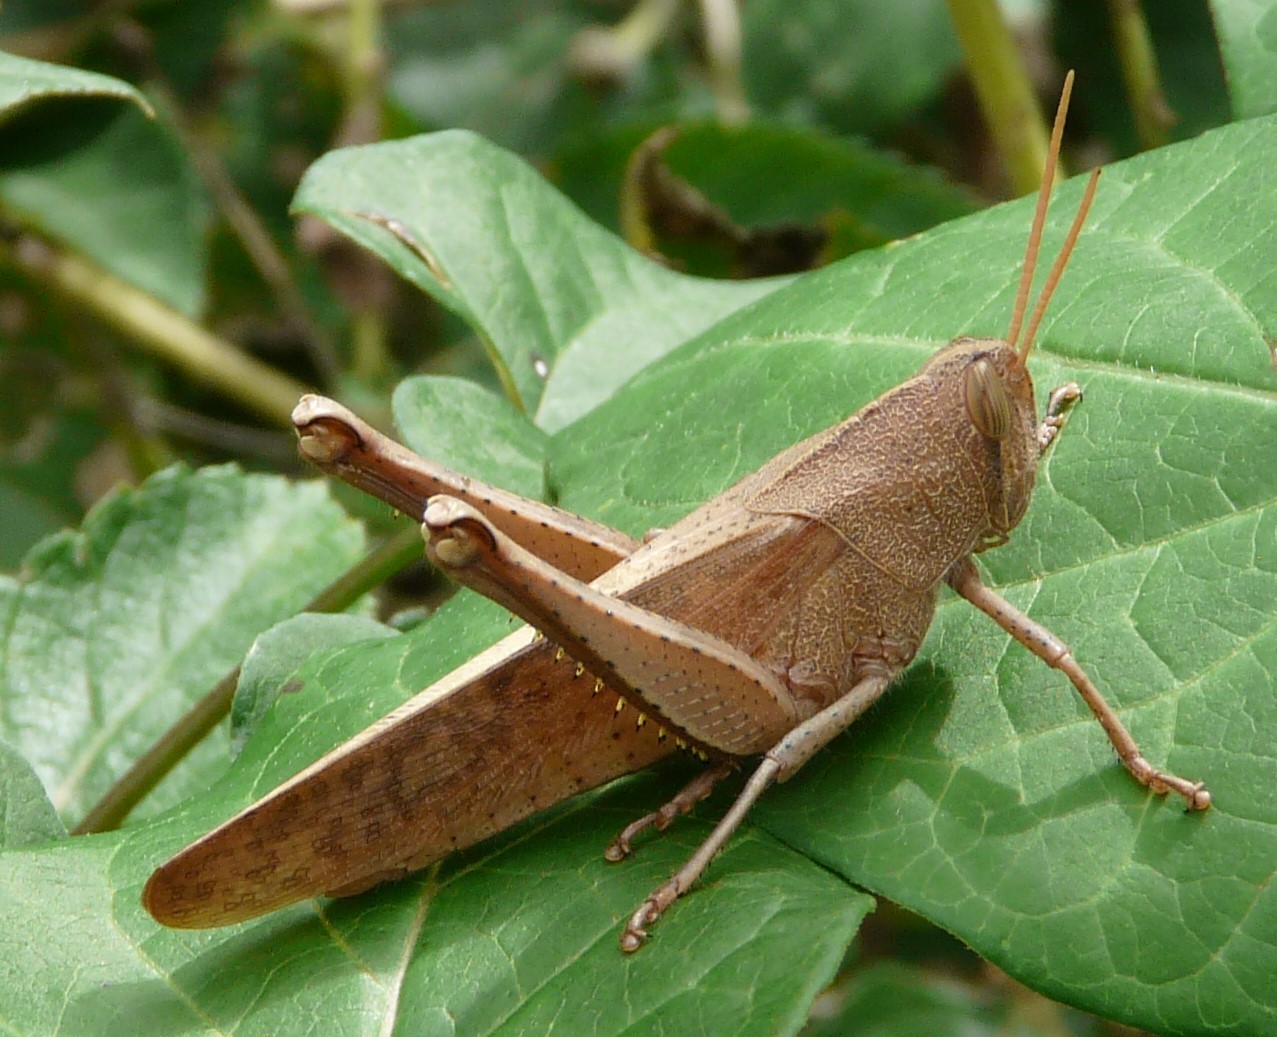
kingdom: Animalia
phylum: Arthropoda
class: Insecta
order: Orthoptera
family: Acrididae
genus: Schistocerca
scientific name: Schistocerca damnifica
